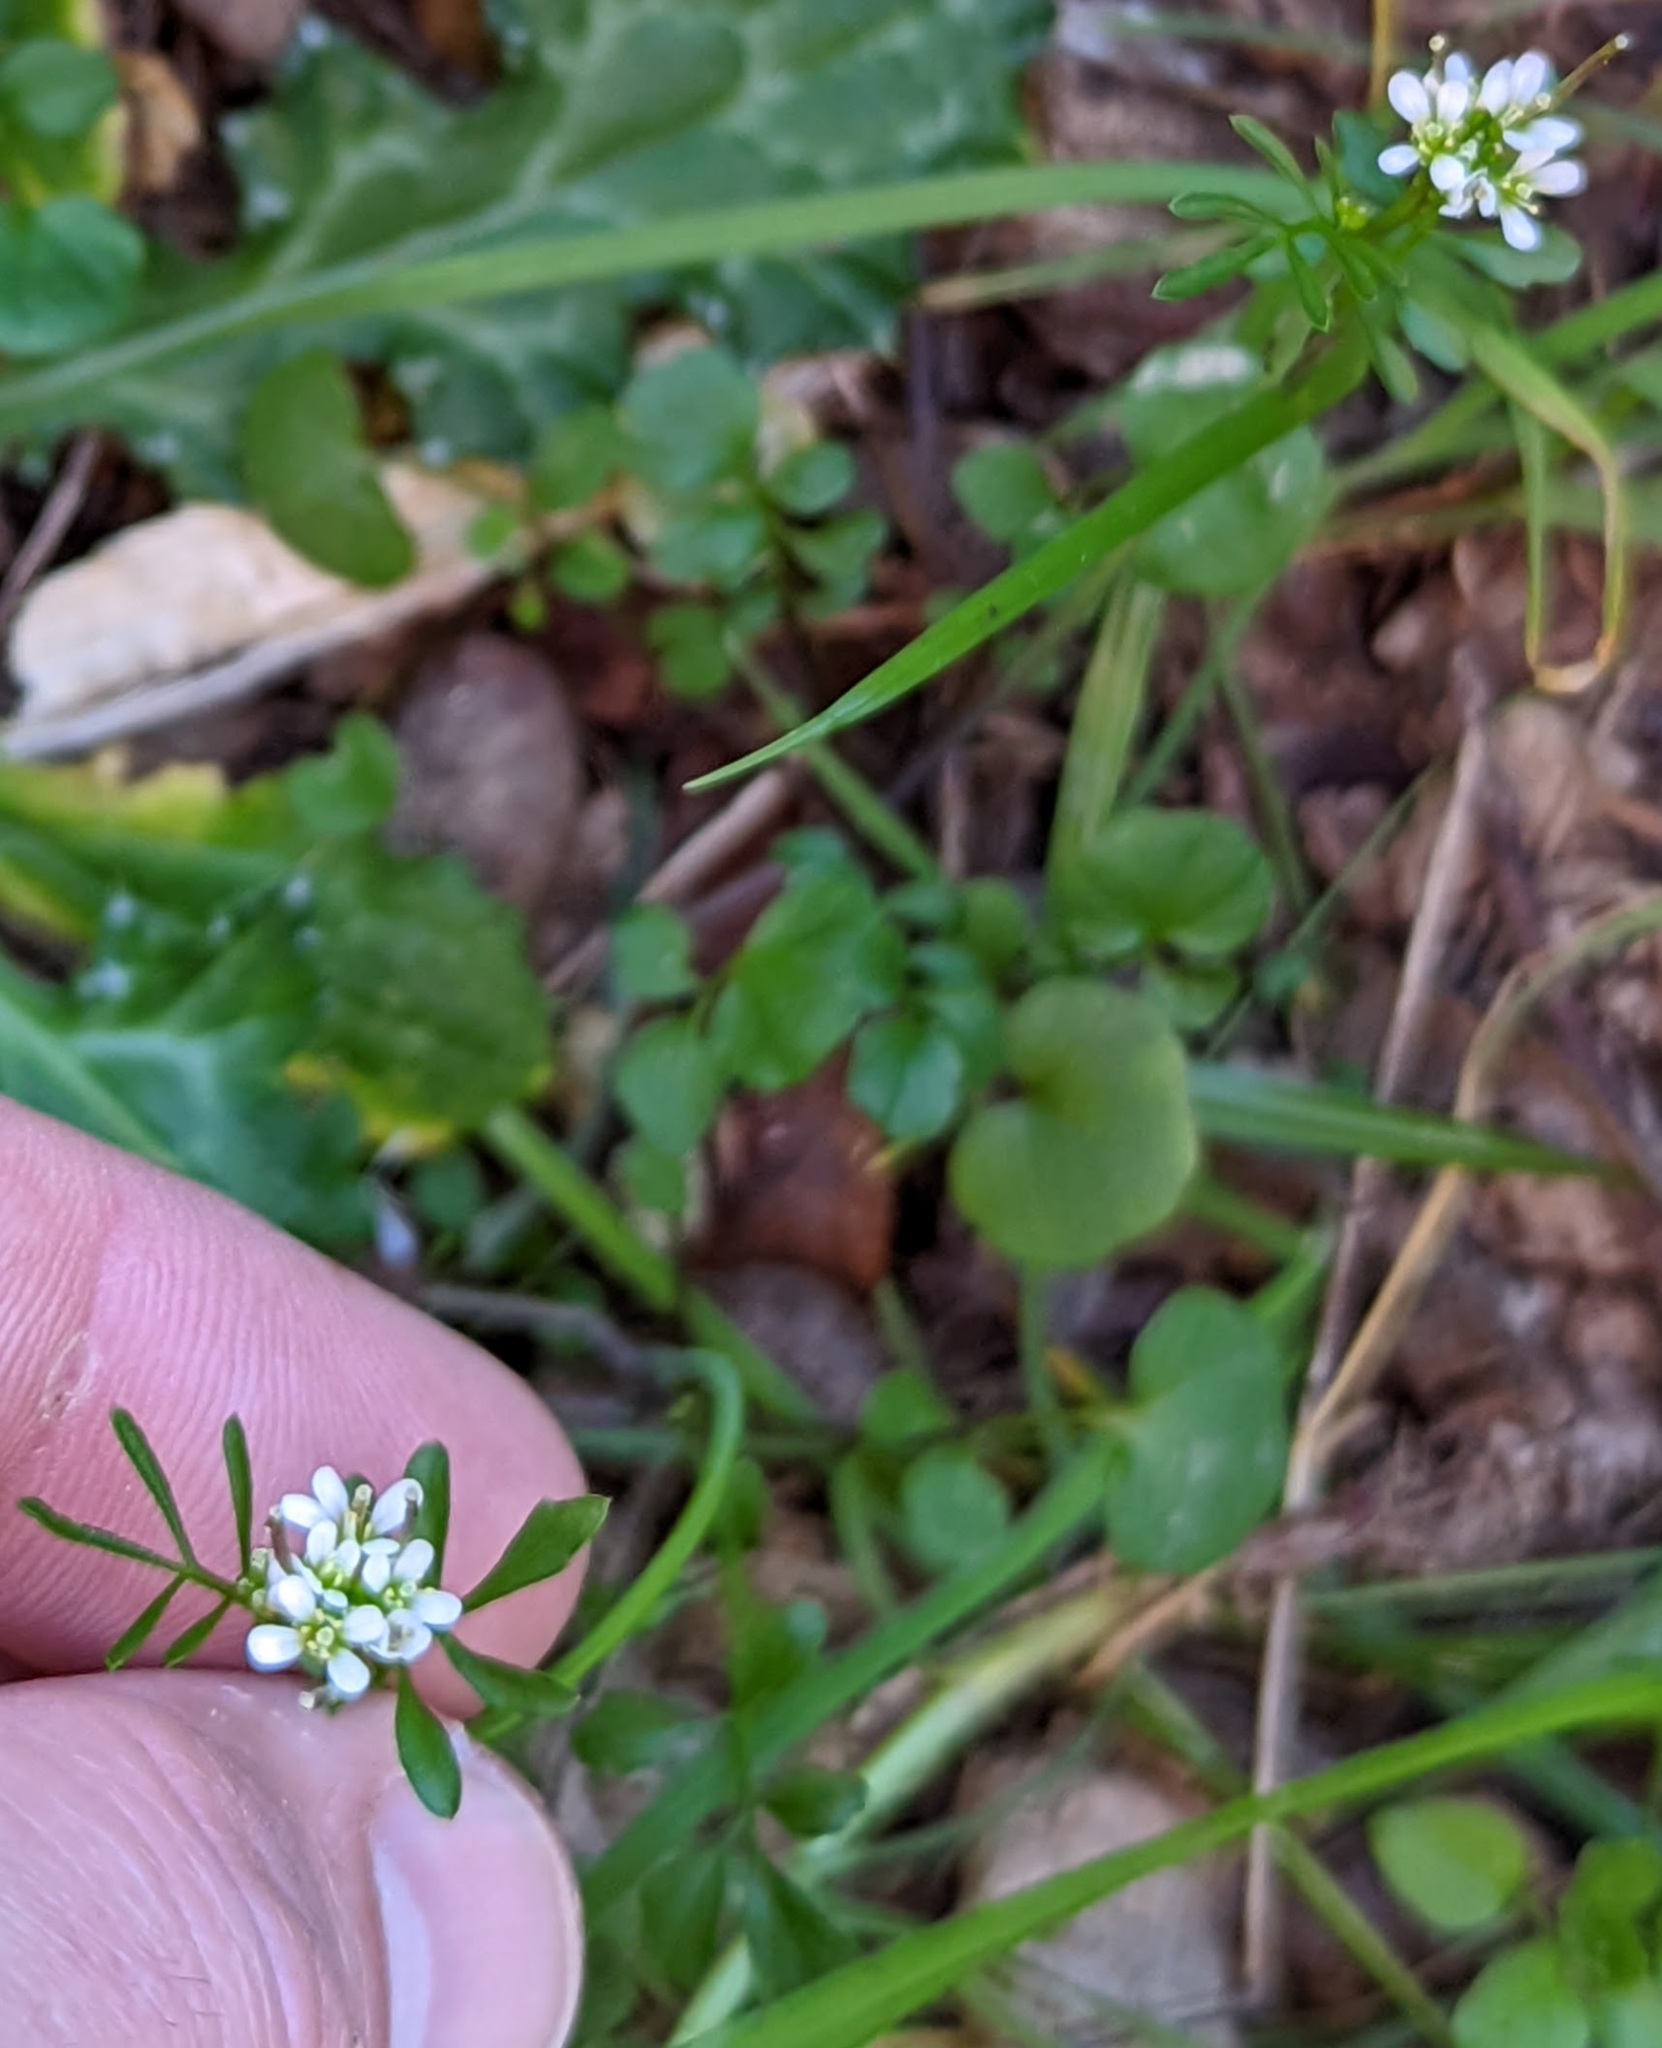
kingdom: Plantae
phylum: Tracheophyta
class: Magnoliopsida
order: Brassicales
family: Brassicaceae
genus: Cardamine
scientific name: Cardamine hirsuta
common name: Hairy bittercress
